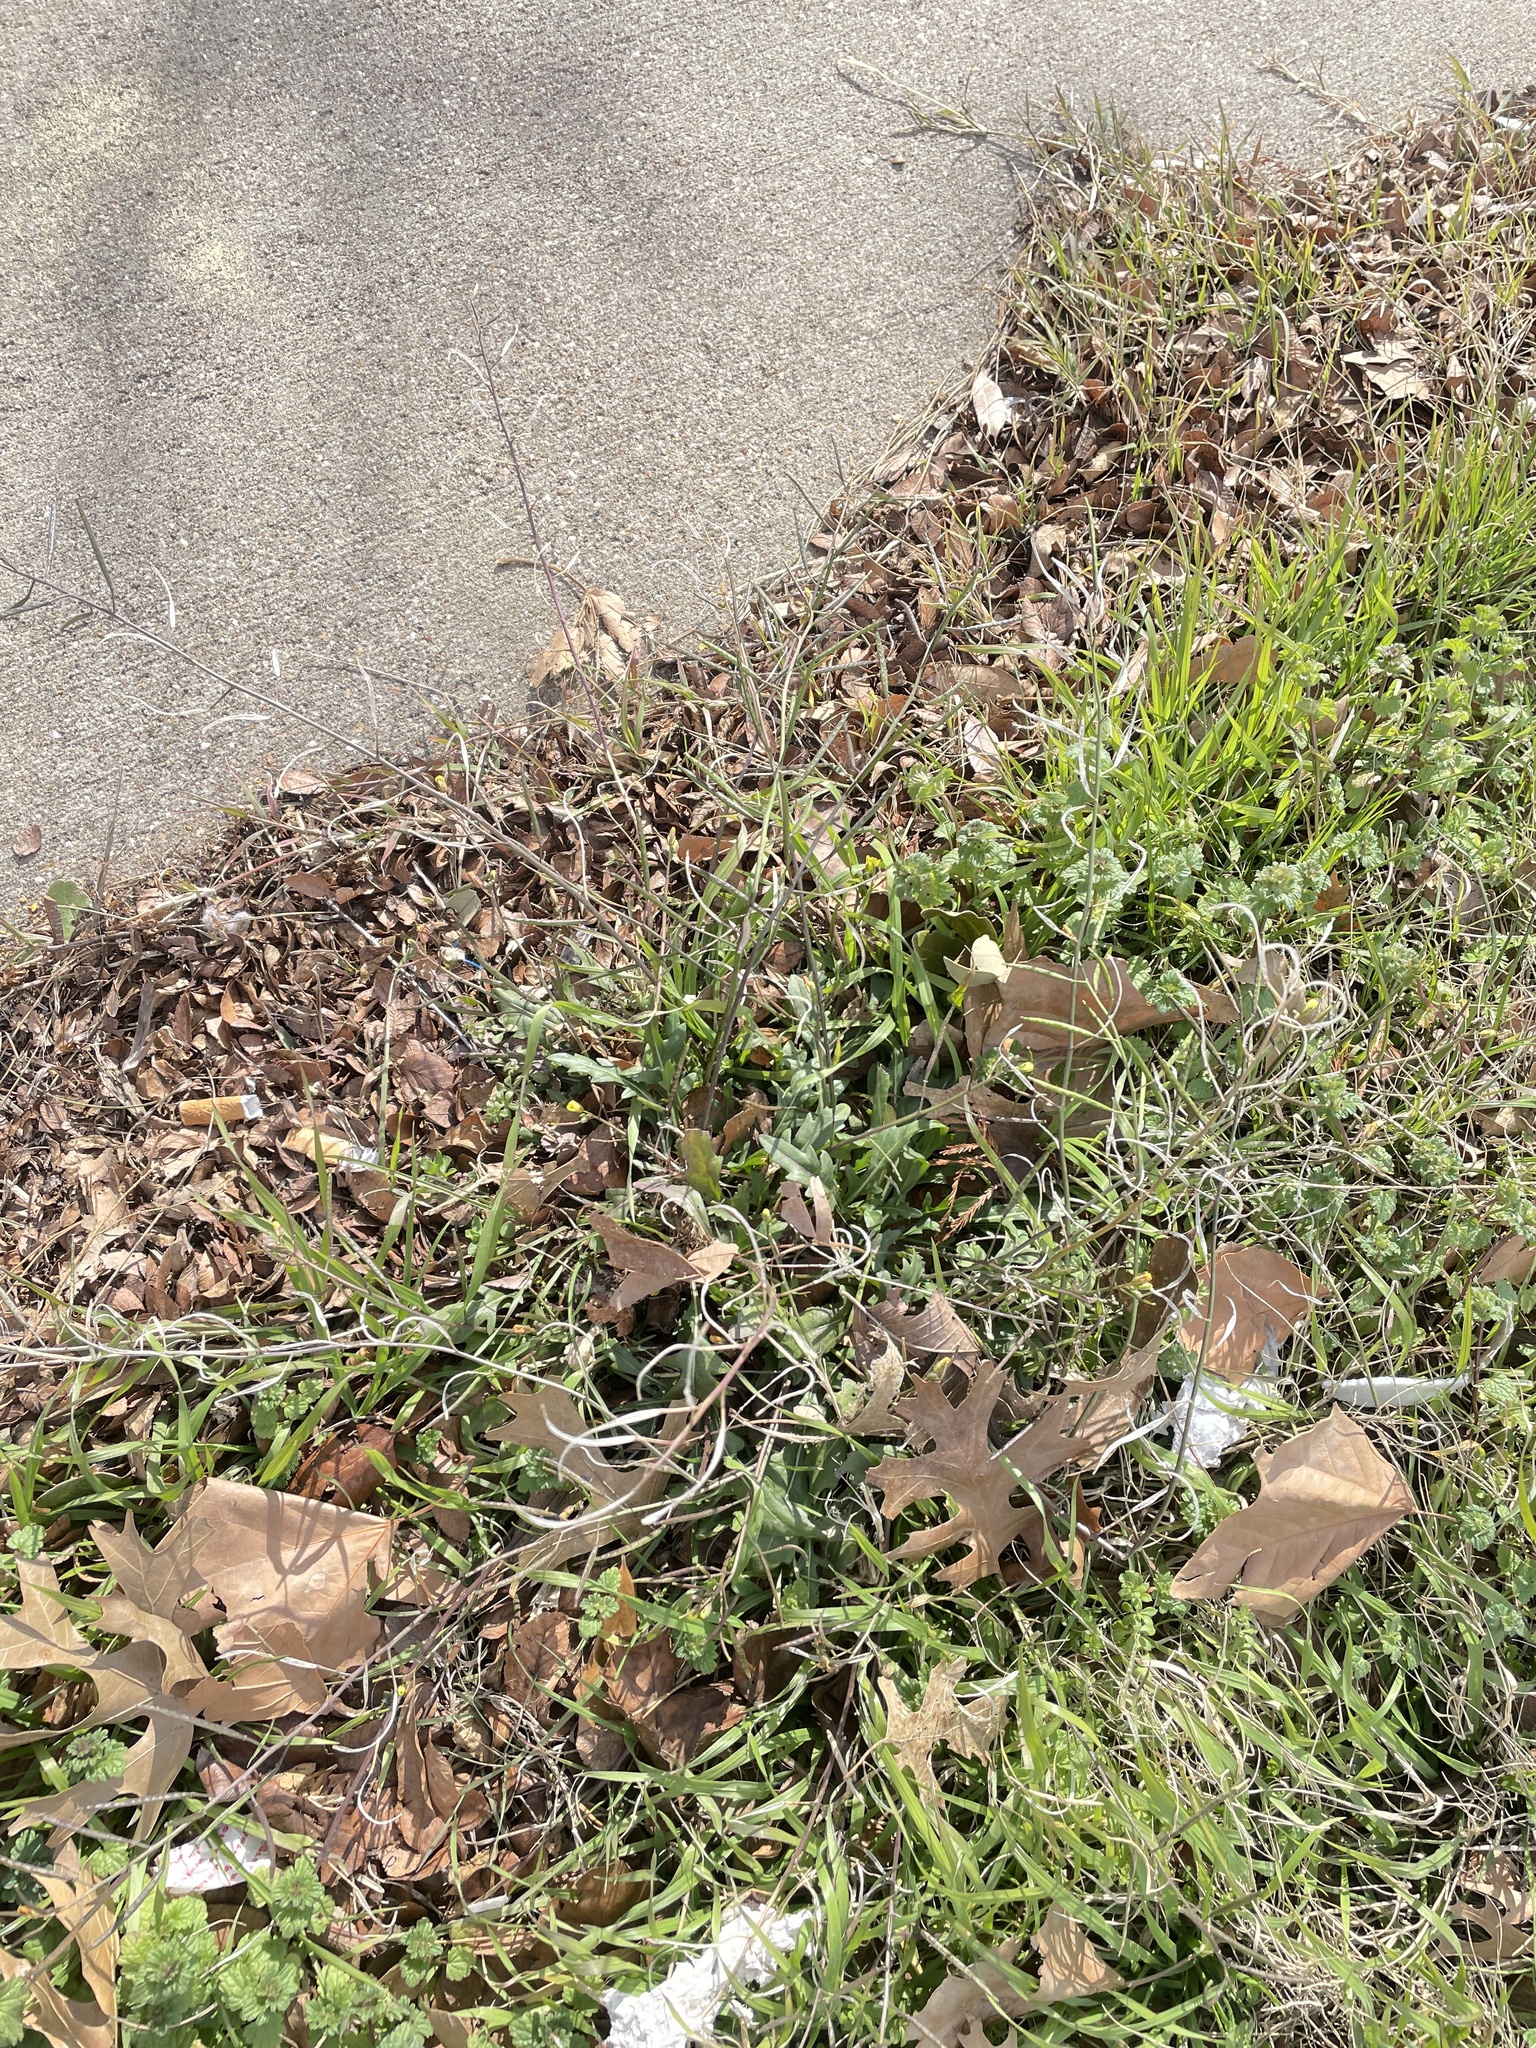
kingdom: Plantae
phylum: Tracheophyta
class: Magnoliopsida
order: Brassicales
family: Brassicaceae
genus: Diplotaxis
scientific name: Diplotaxis muralis
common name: Annual wall-rocket
